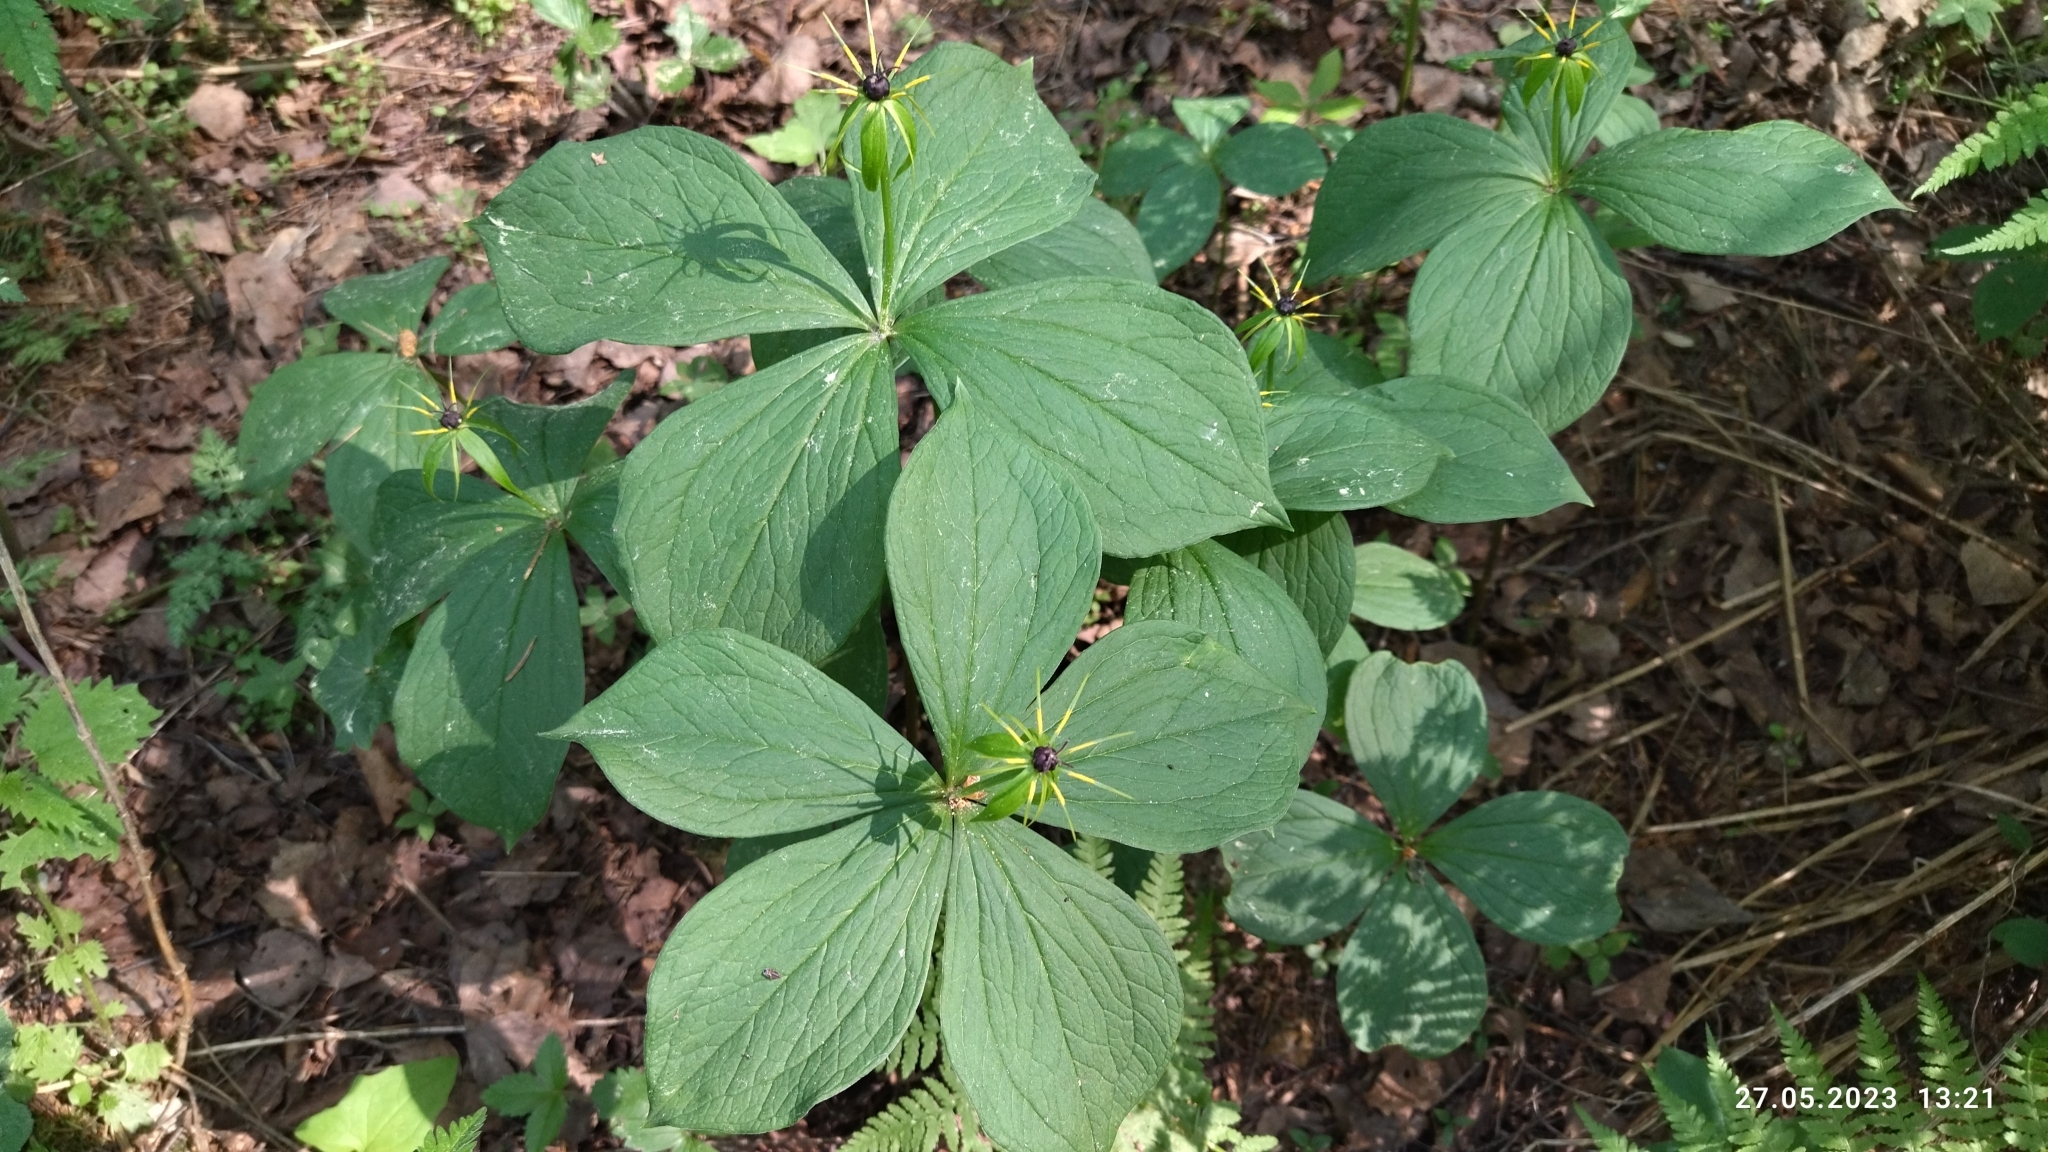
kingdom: Plantae
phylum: Tracheophyta
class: Liliopsida
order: Liliales
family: Melanthiaceae
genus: Paris
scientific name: Paris quadrifolia
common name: Herb-paris
